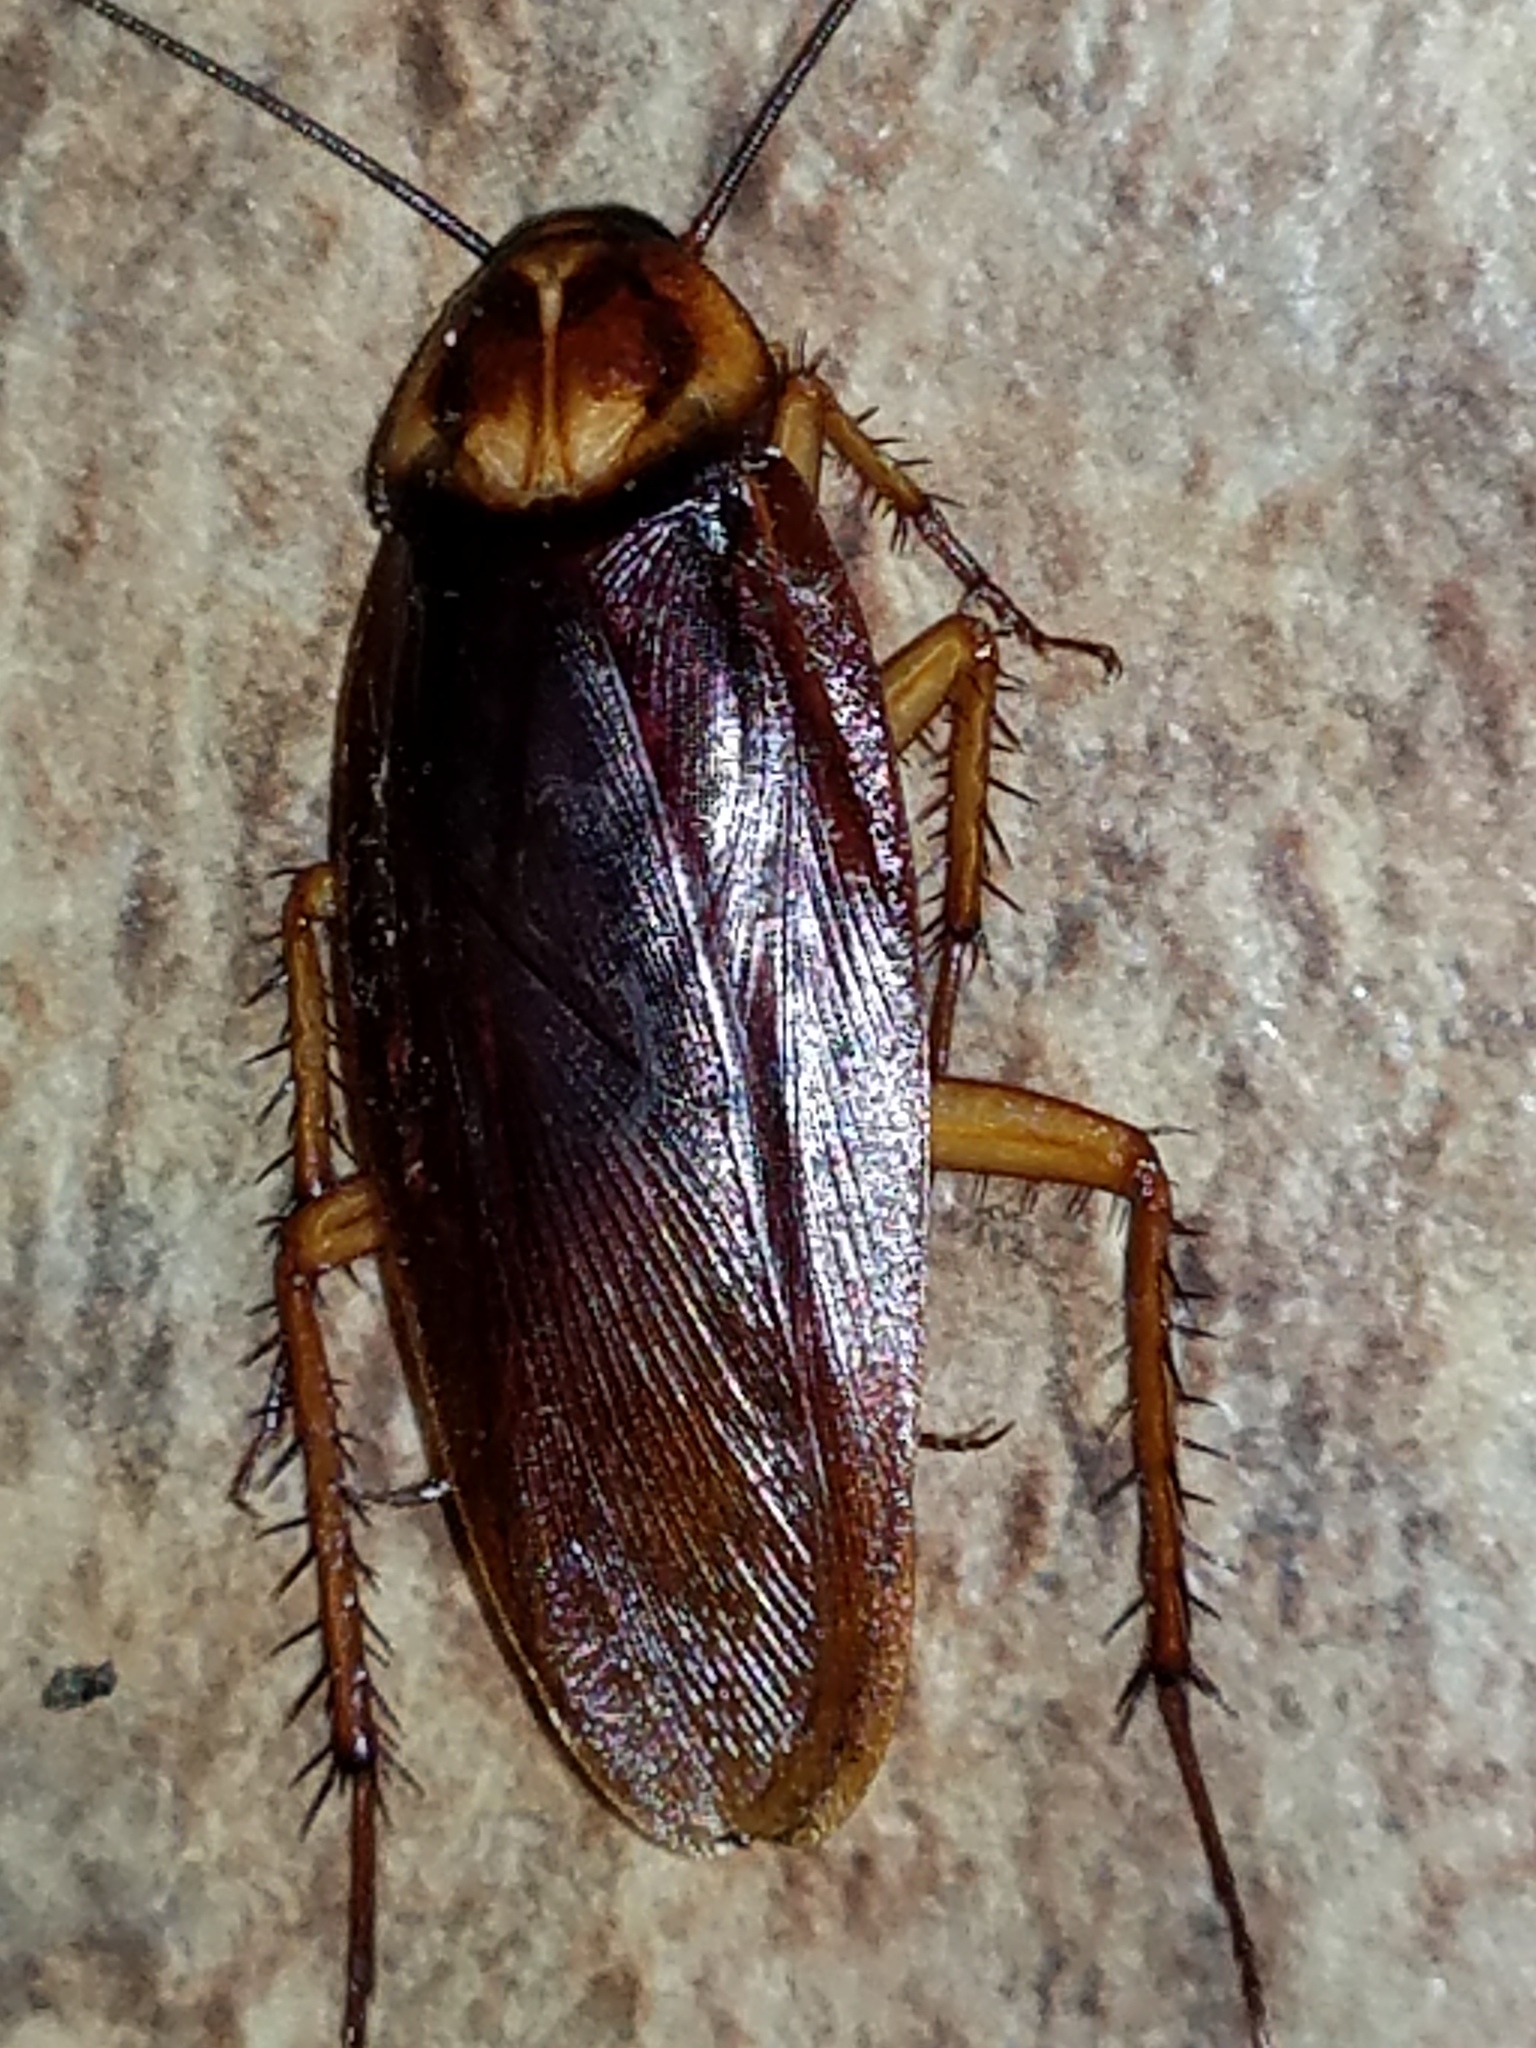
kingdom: Animalia
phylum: Arthropoda
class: Insecta
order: Blattodea
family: Blattidae
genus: Periplaneta
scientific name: Periplaneta americana
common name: American cockroach
